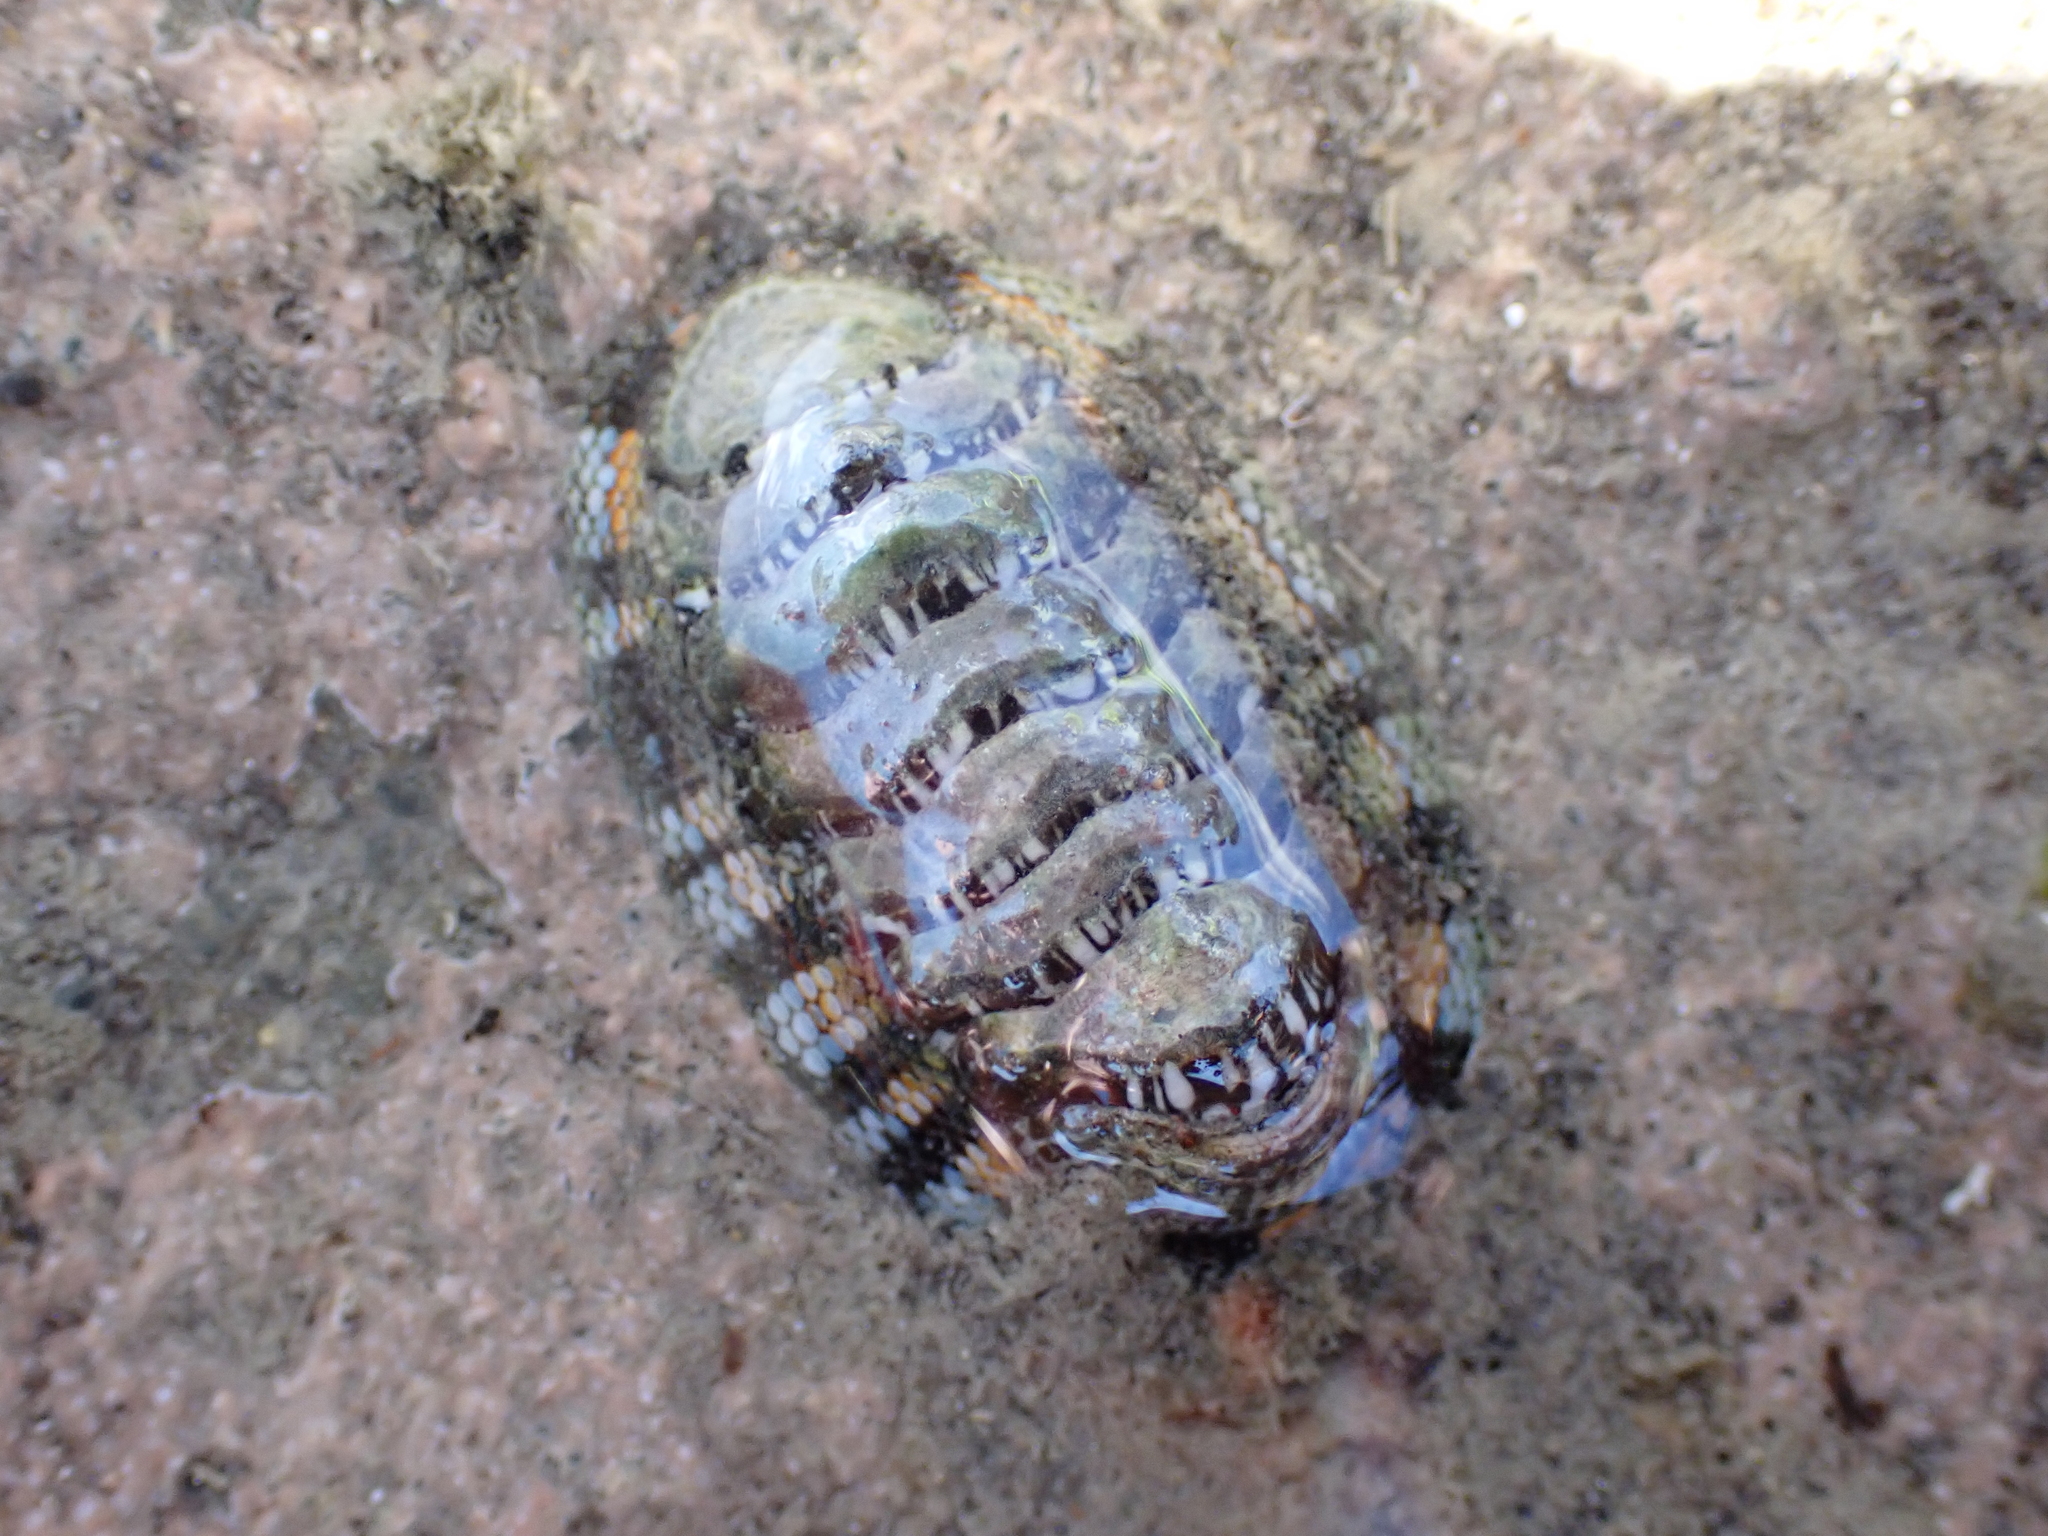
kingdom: Animalia
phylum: Mollusca
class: Polyplacophora
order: Chitonida
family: Chitonidae
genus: Sypharochiton
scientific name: Sypharochiton sinclairi
